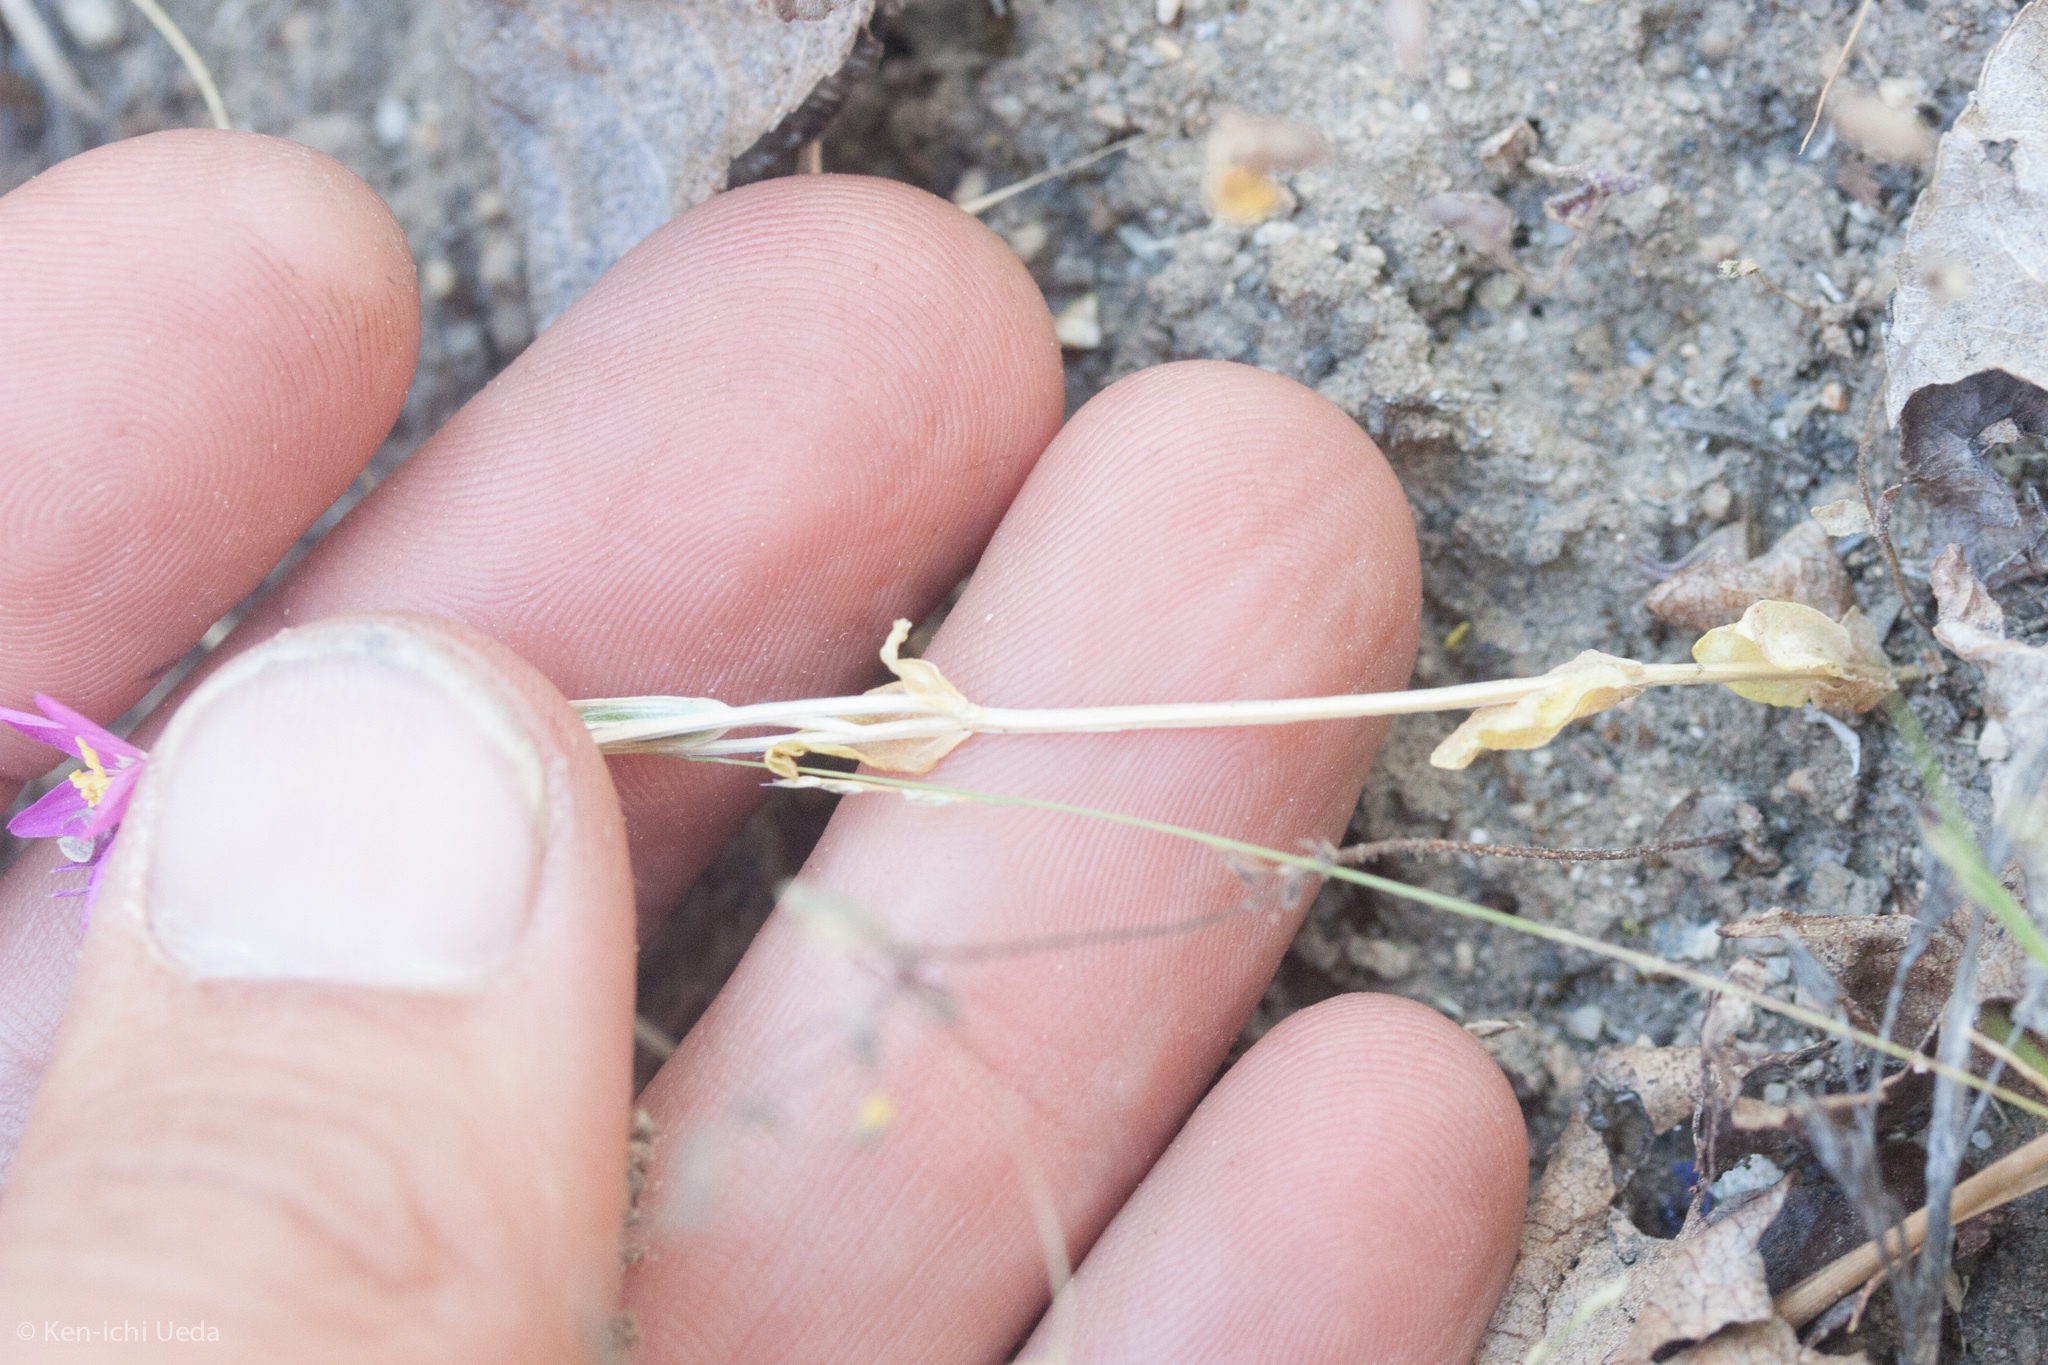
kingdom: Plantae
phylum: Tracheophyta
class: Magnoliopsida
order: Gentianales
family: Gentianaceae
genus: Zeltnera
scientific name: Zeltnera venusta
